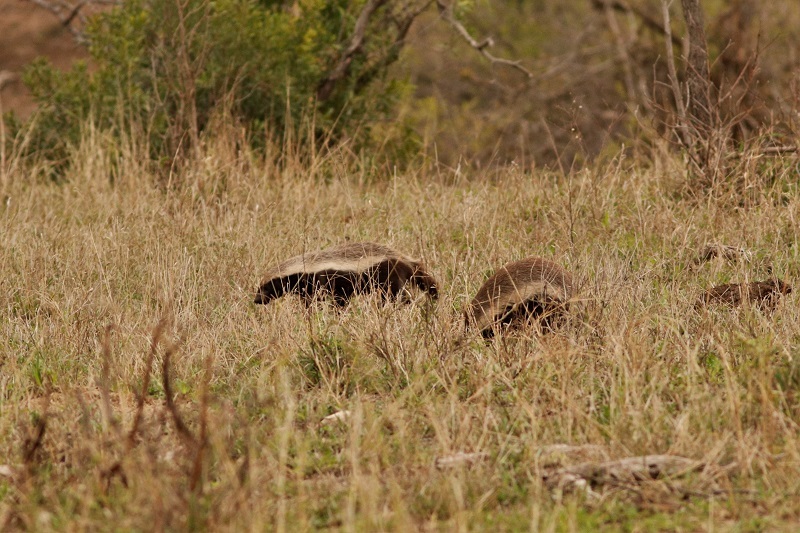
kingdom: Animalia
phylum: Chordata
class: Mammalia
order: Carnivora
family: Mustelidae
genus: Mellivora
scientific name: Mellivora capensis
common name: Honey badger
